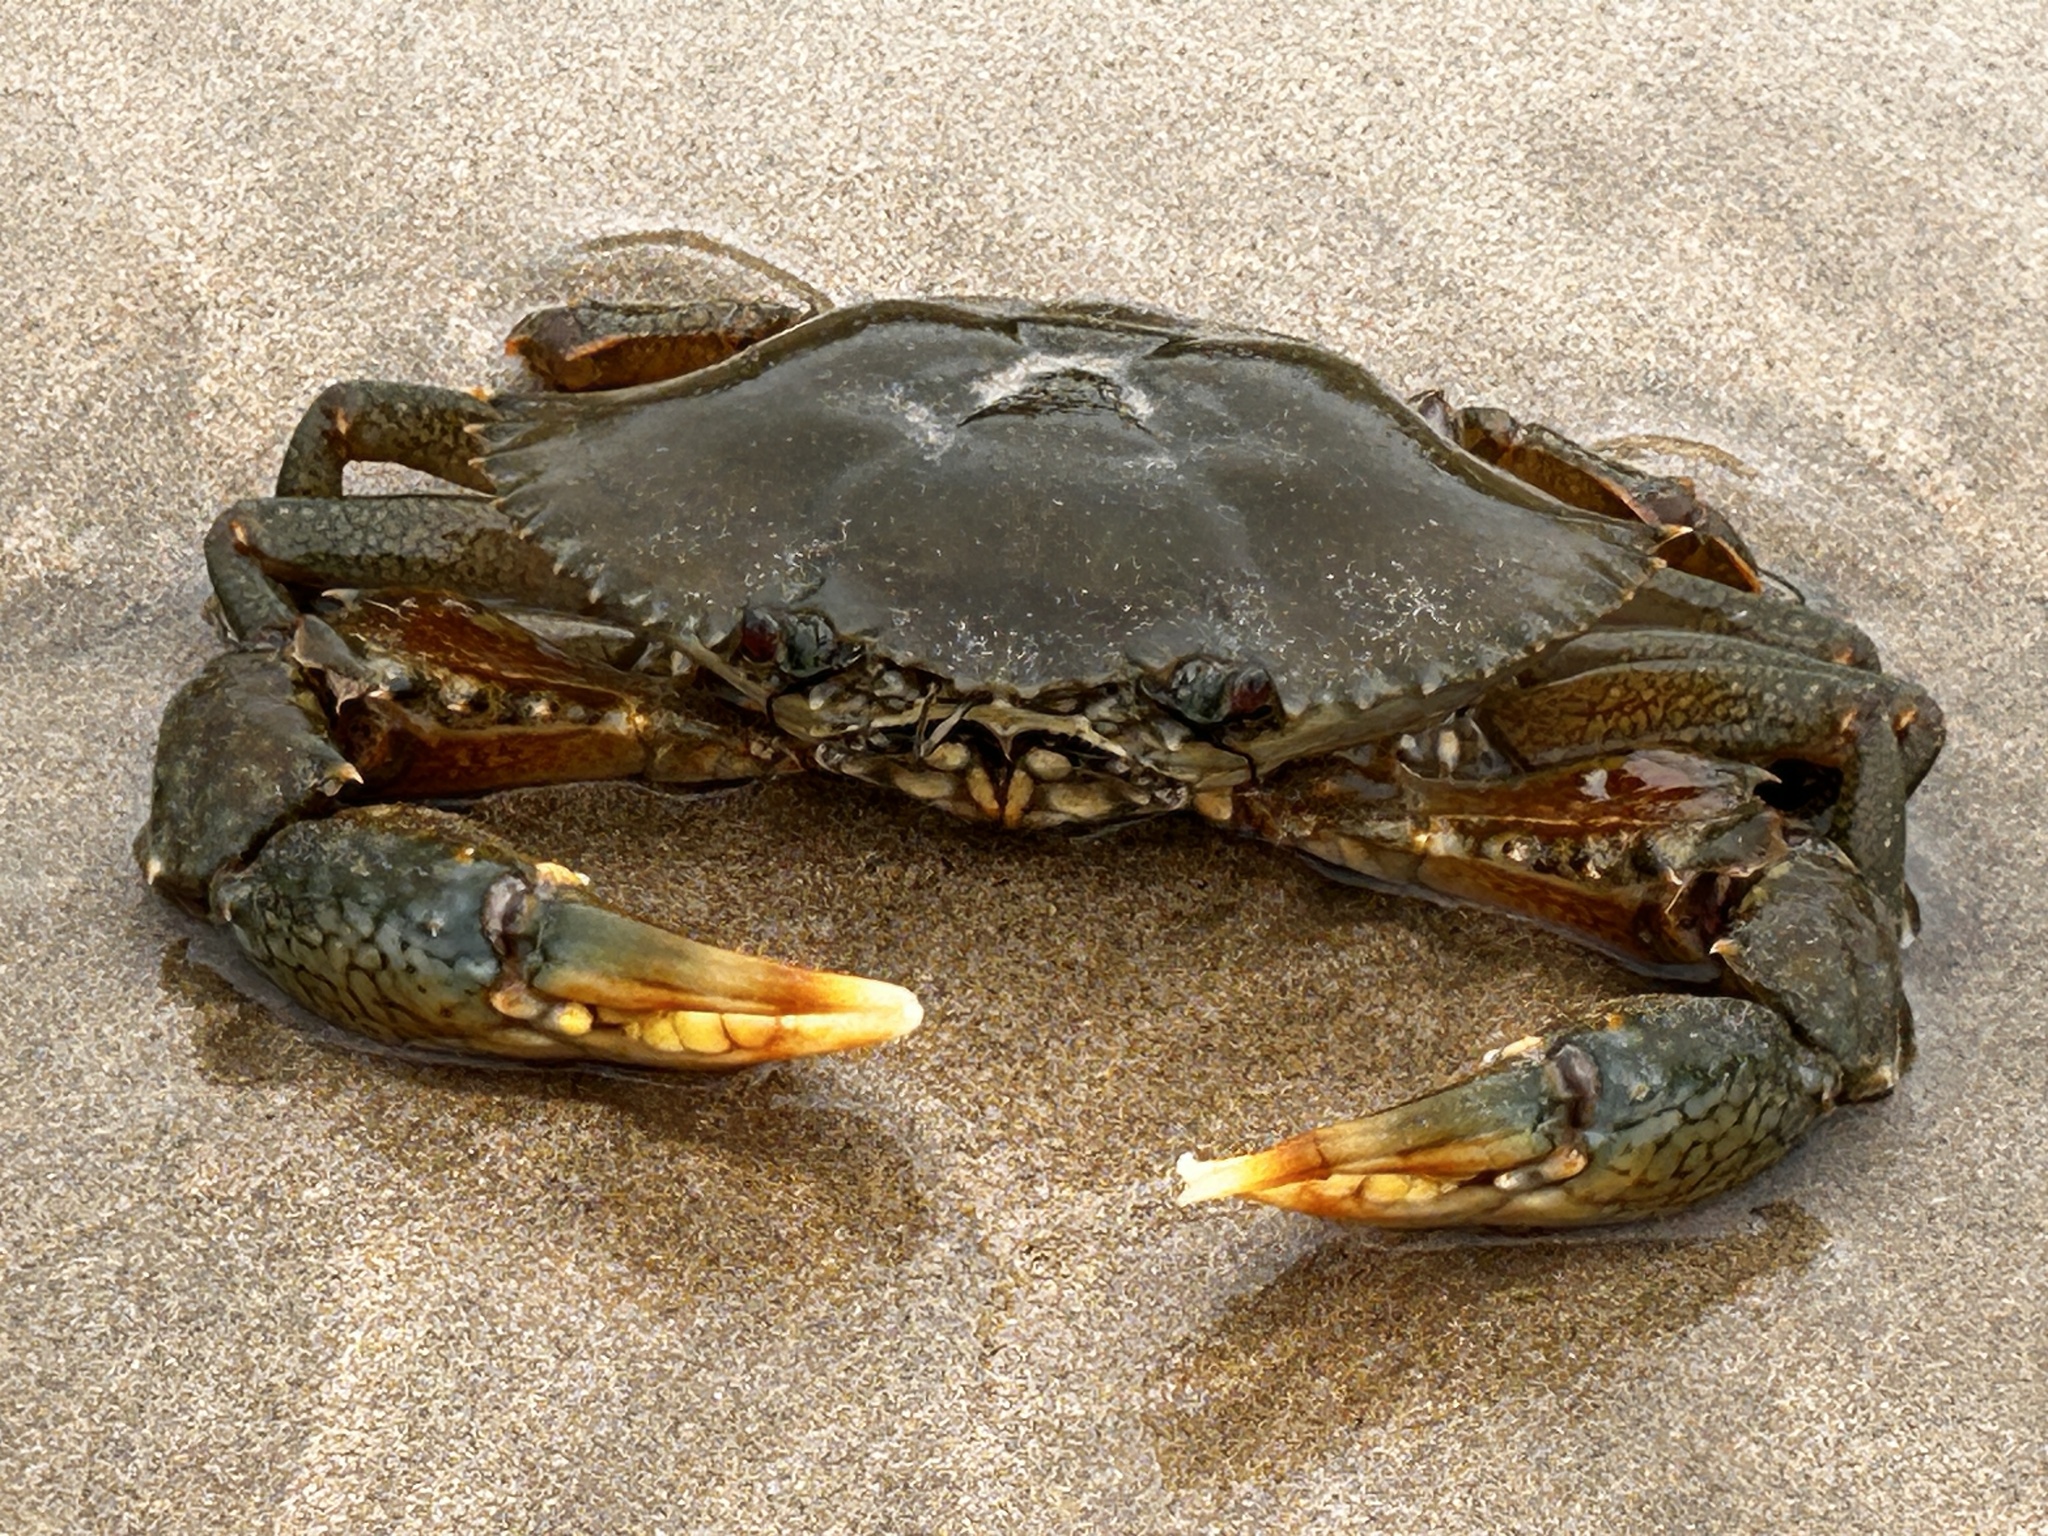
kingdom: Animalia
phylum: Arthropoda
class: Malacostraca
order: Decapoda
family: Portunidae
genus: Scylla
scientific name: Scylla serrata
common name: Giant mud crab
